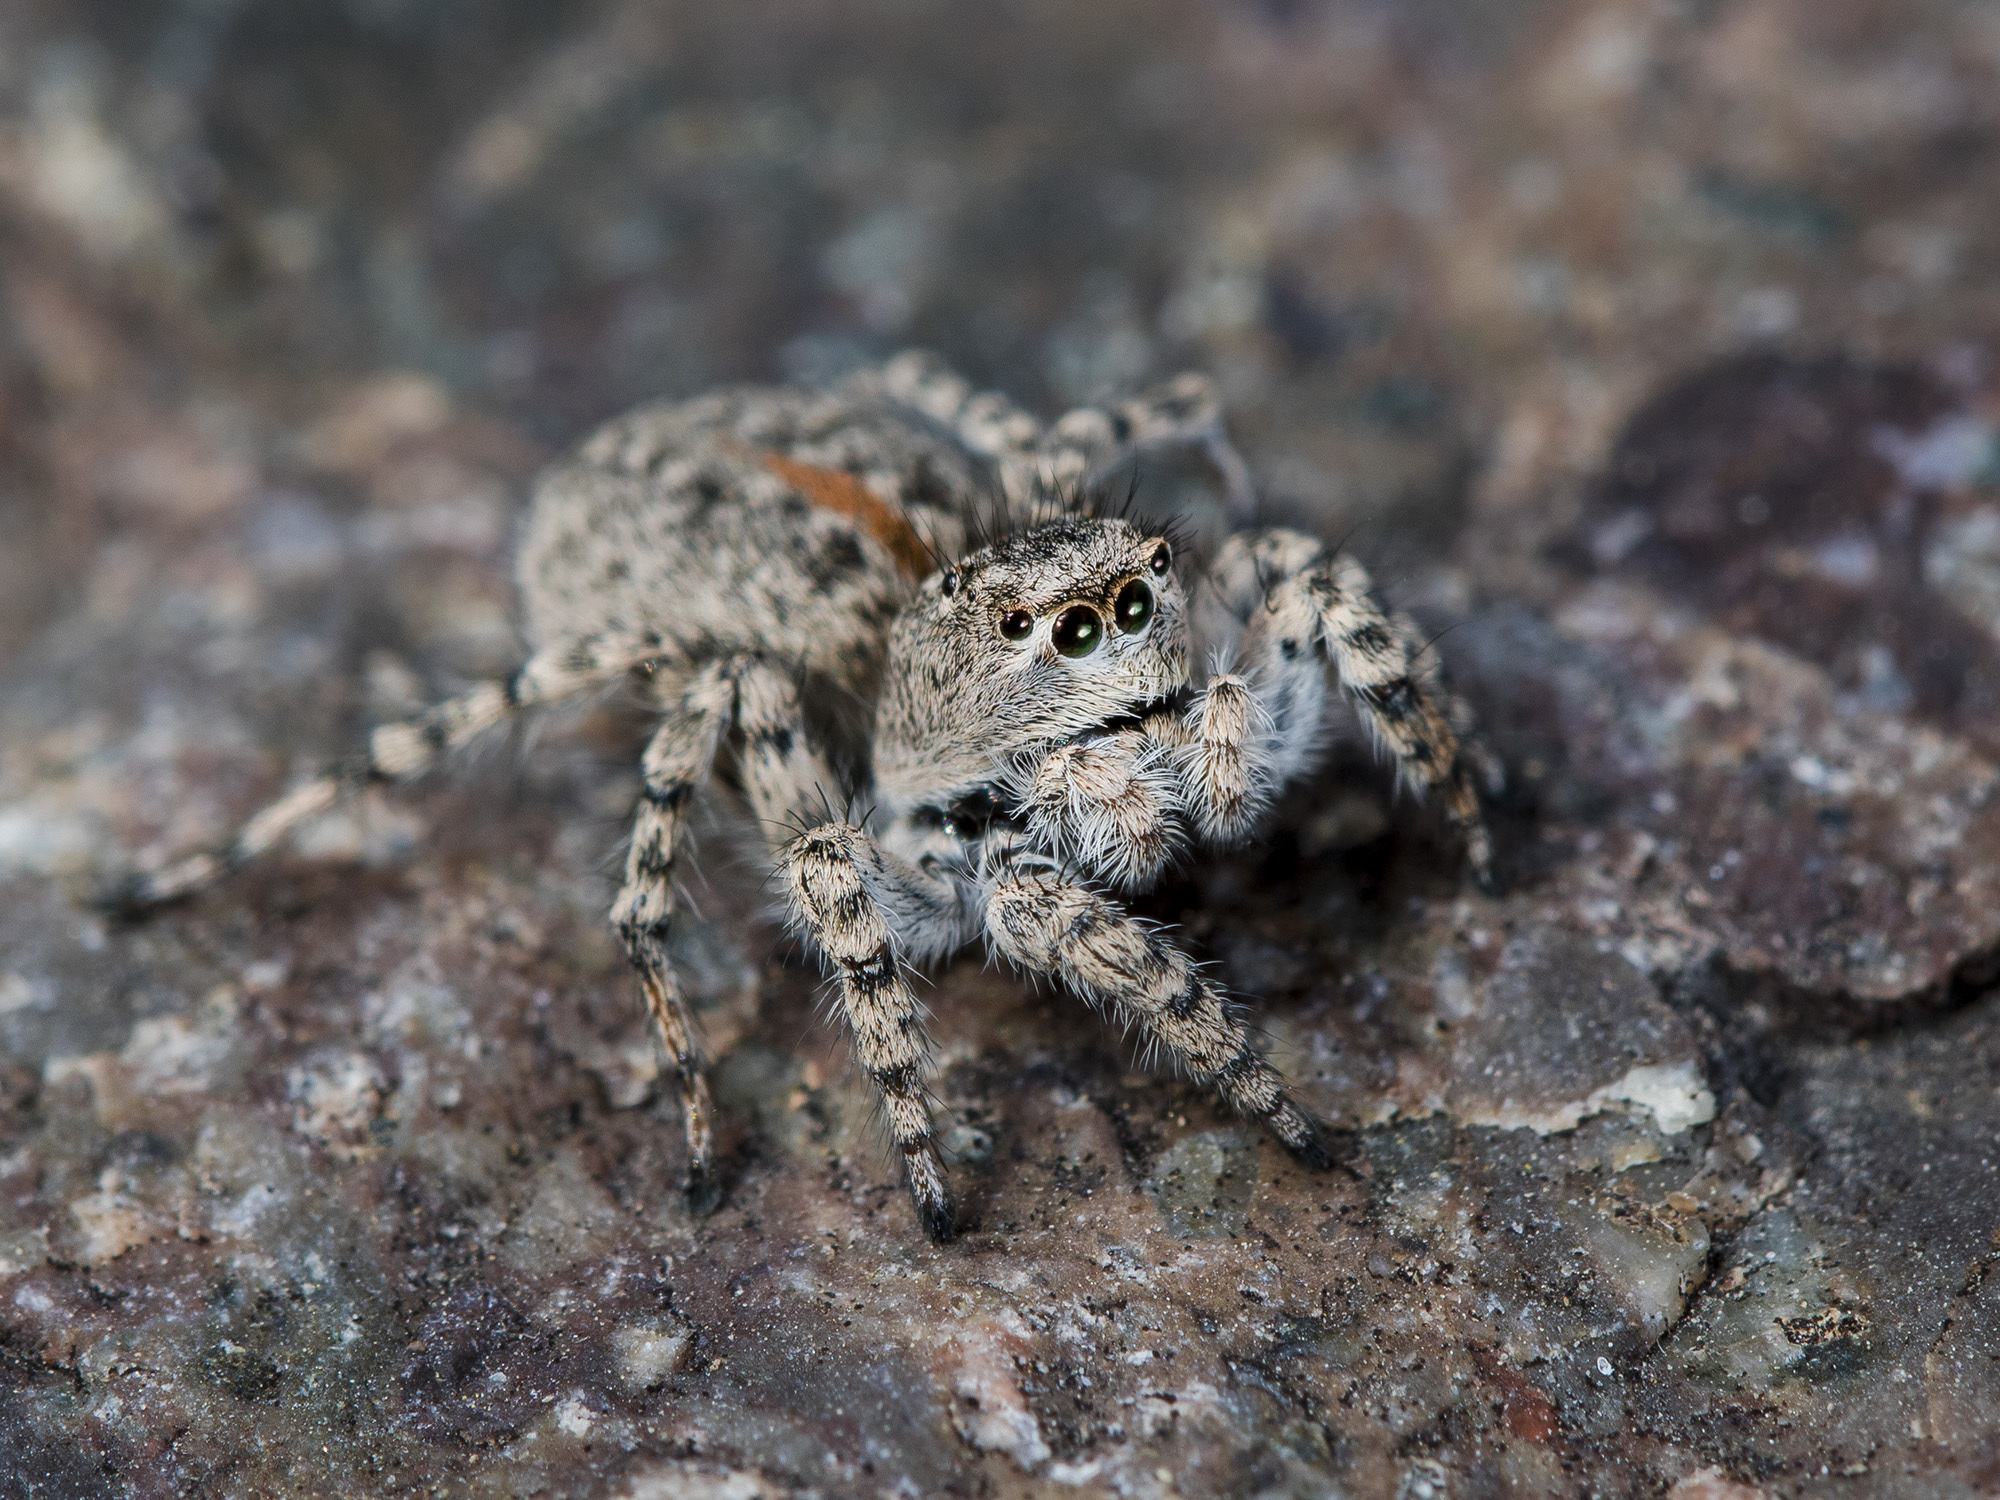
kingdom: Animalia
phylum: Arthropoda
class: Arachnida
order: Araneae
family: Salticidae
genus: Aelurillus
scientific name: Aelurillus dubatolovi
